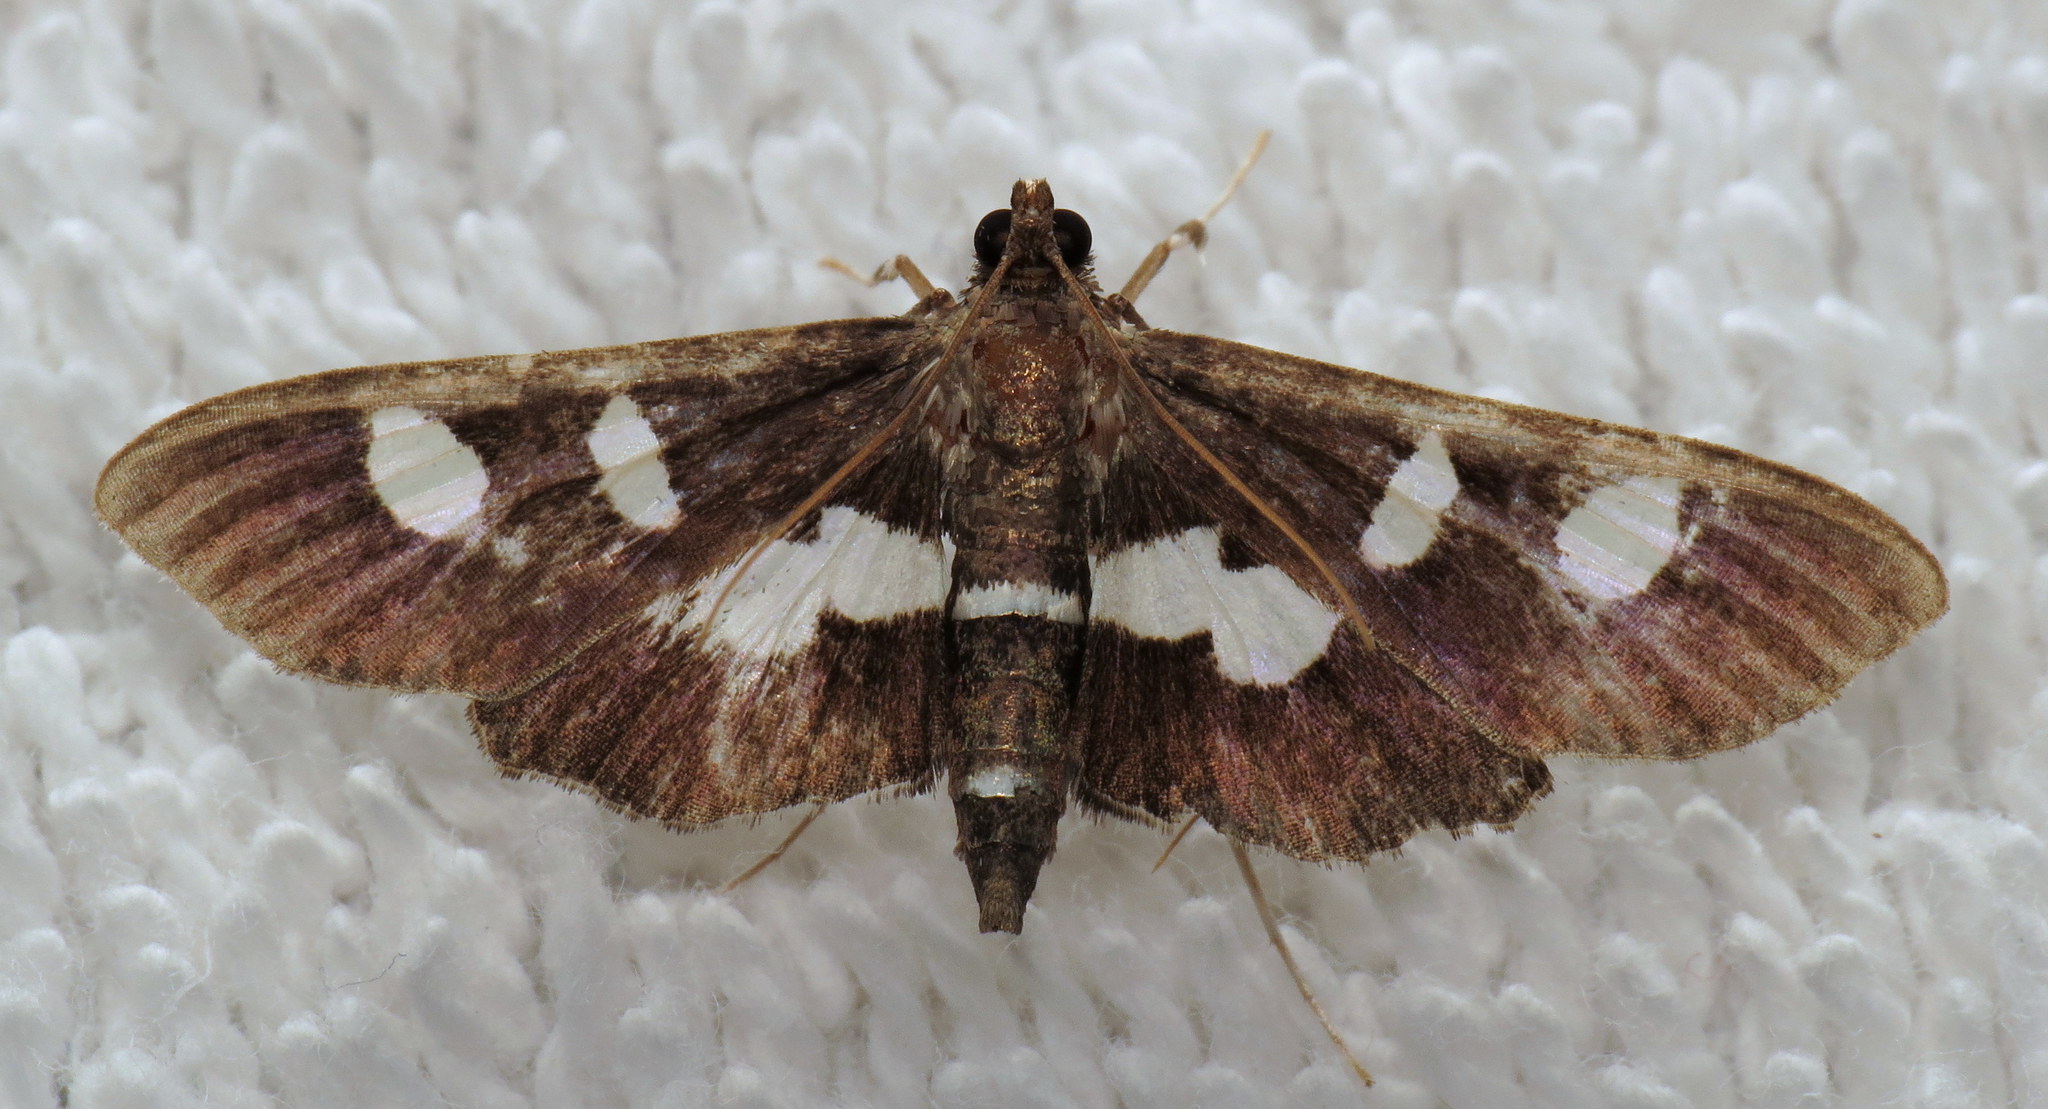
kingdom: Animalia
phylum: Arthropoda
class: Insecta
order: Lepidoptera
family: Crambidae
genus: Desmia
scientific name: Desmia
